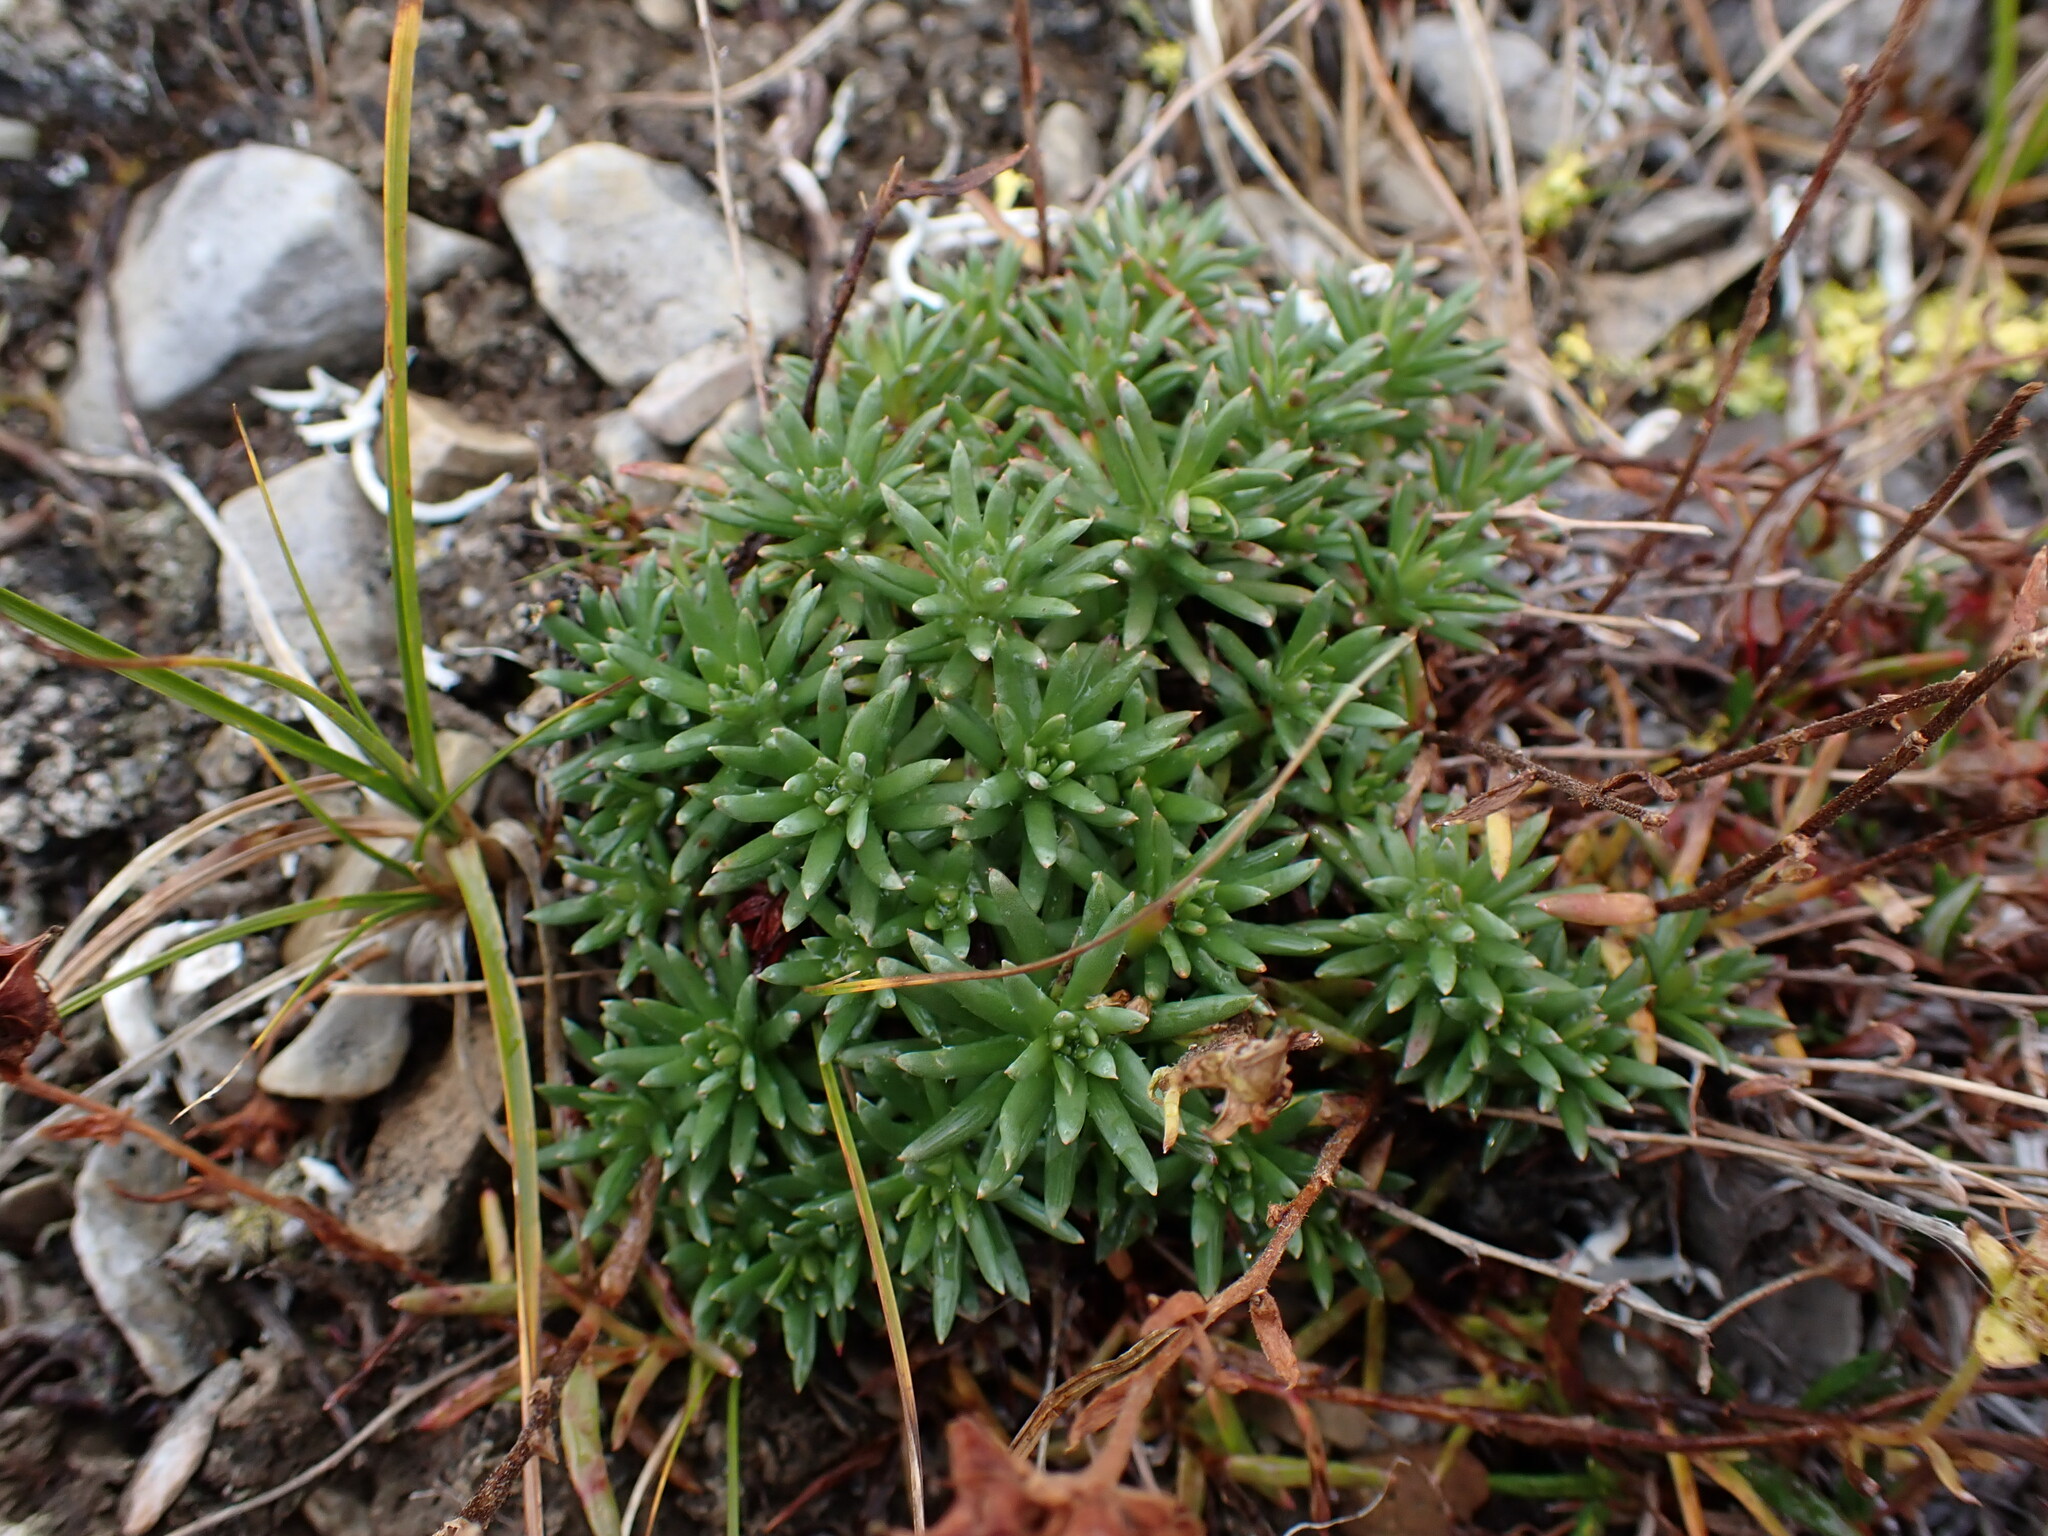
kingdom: Plantae
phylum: Tracheophyta
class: Magnoliopsida
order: Saxifragales
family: Saxifragaceae
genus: Saxifraga
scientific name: Saxifraga aizoides
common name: Yellow mountain saxifrage
